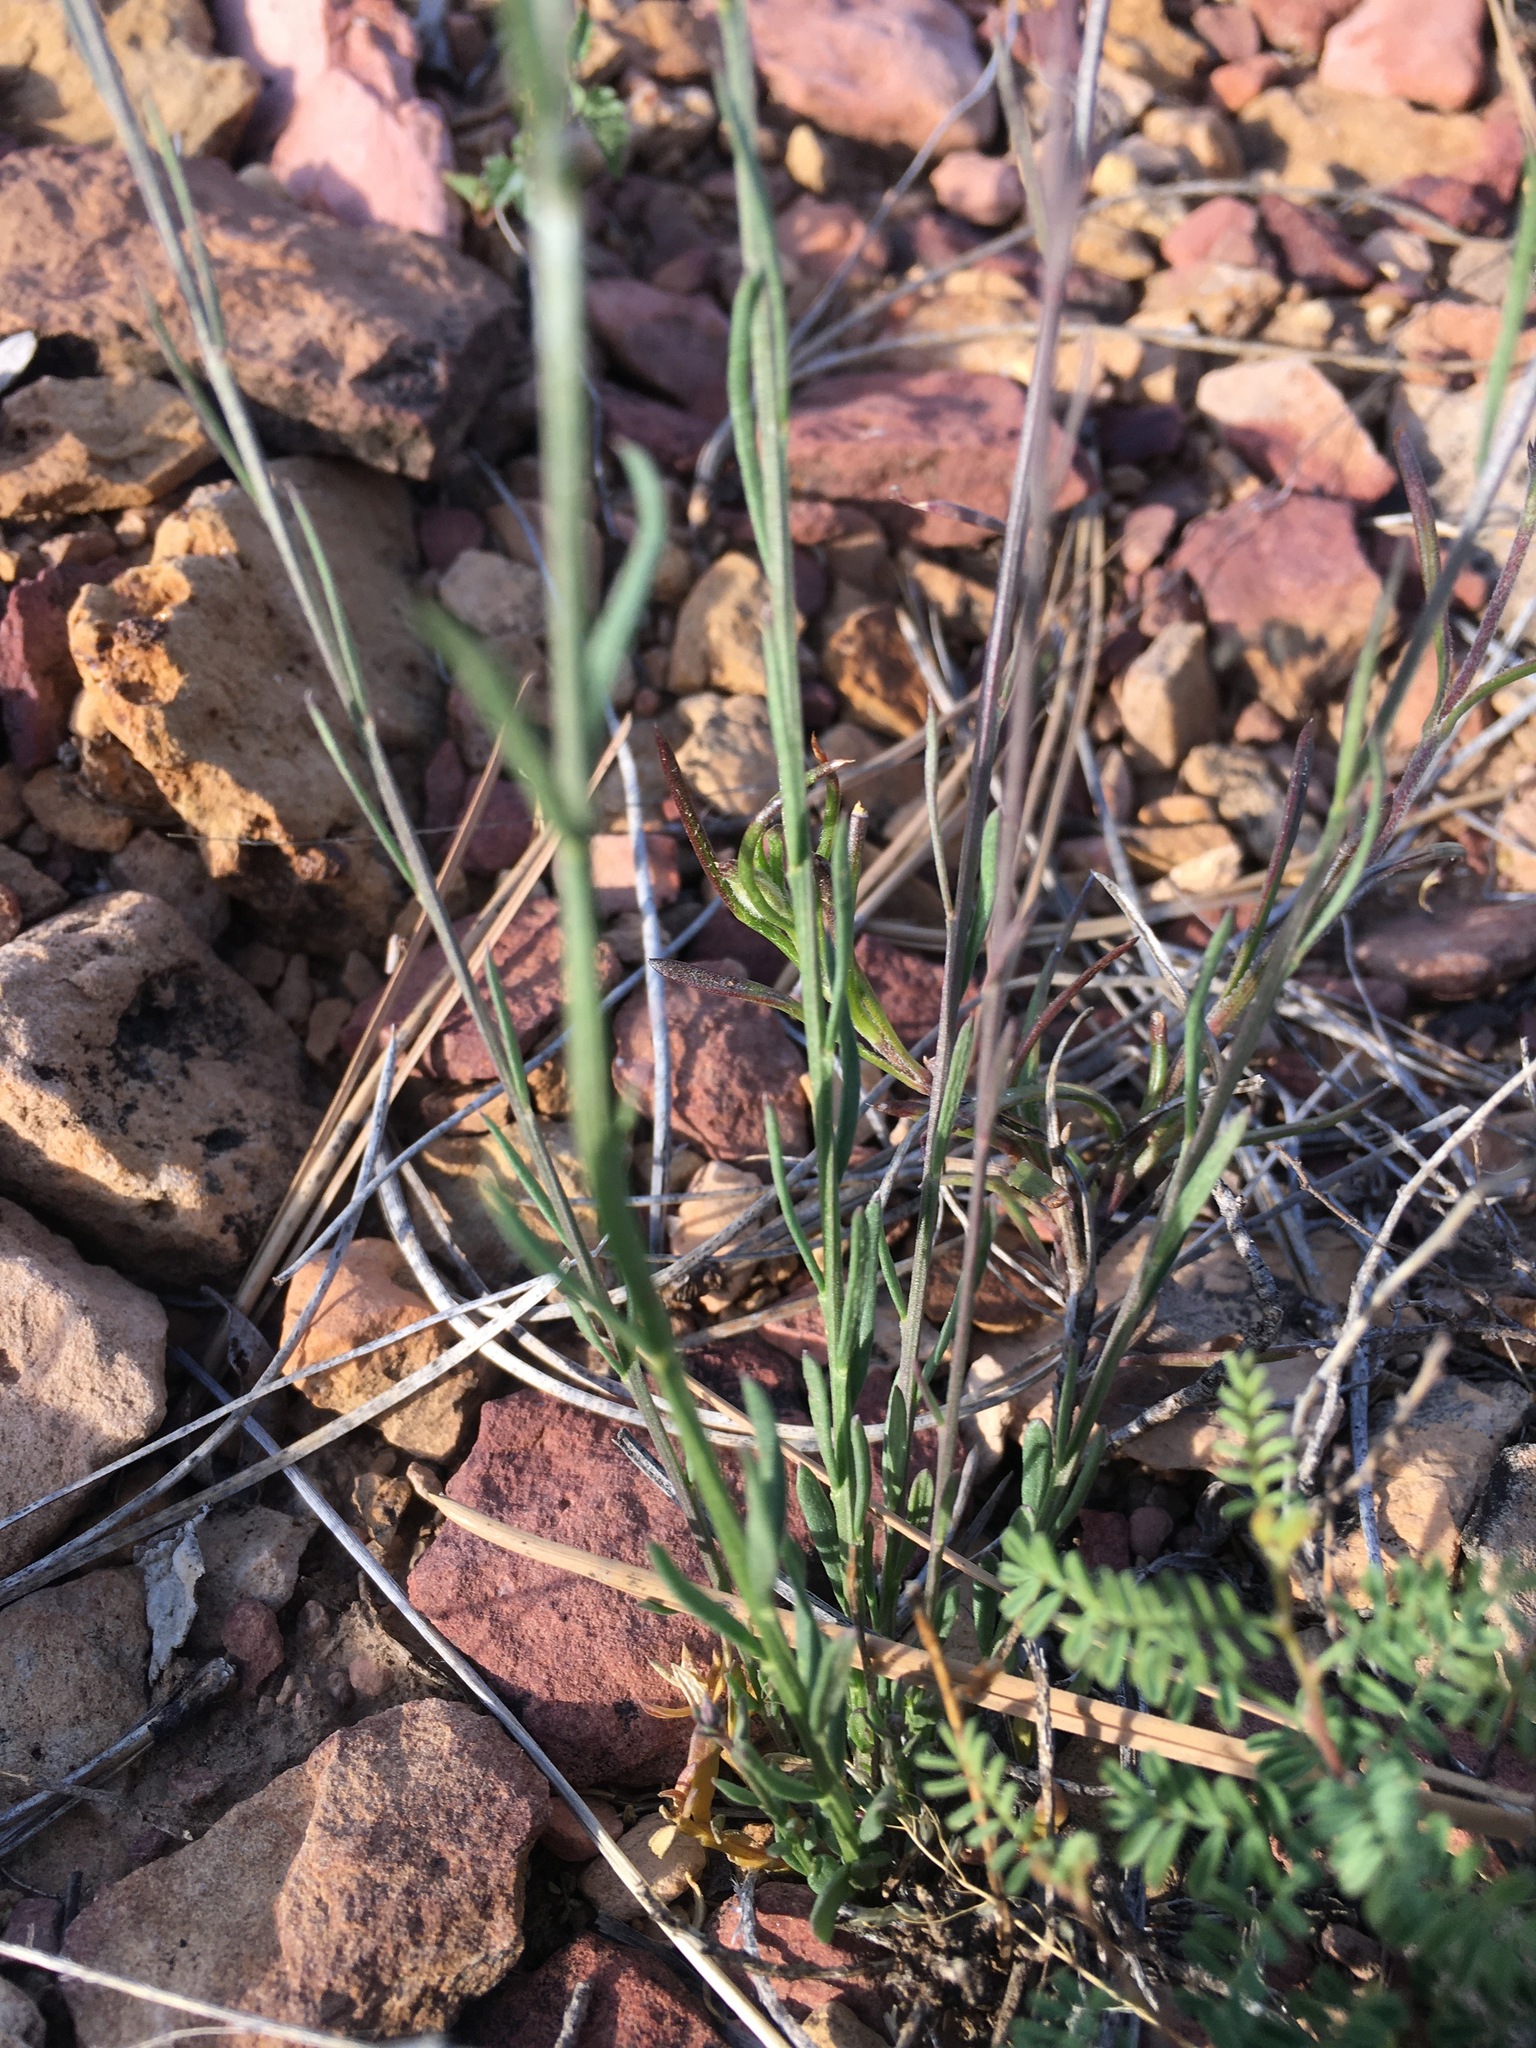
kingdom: Plantae
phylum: Tracheophyta
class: Magnoliopsida
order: Fabales
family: Polygalaceae
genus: Polygala
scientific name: Polygala alba
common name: White milkwort
